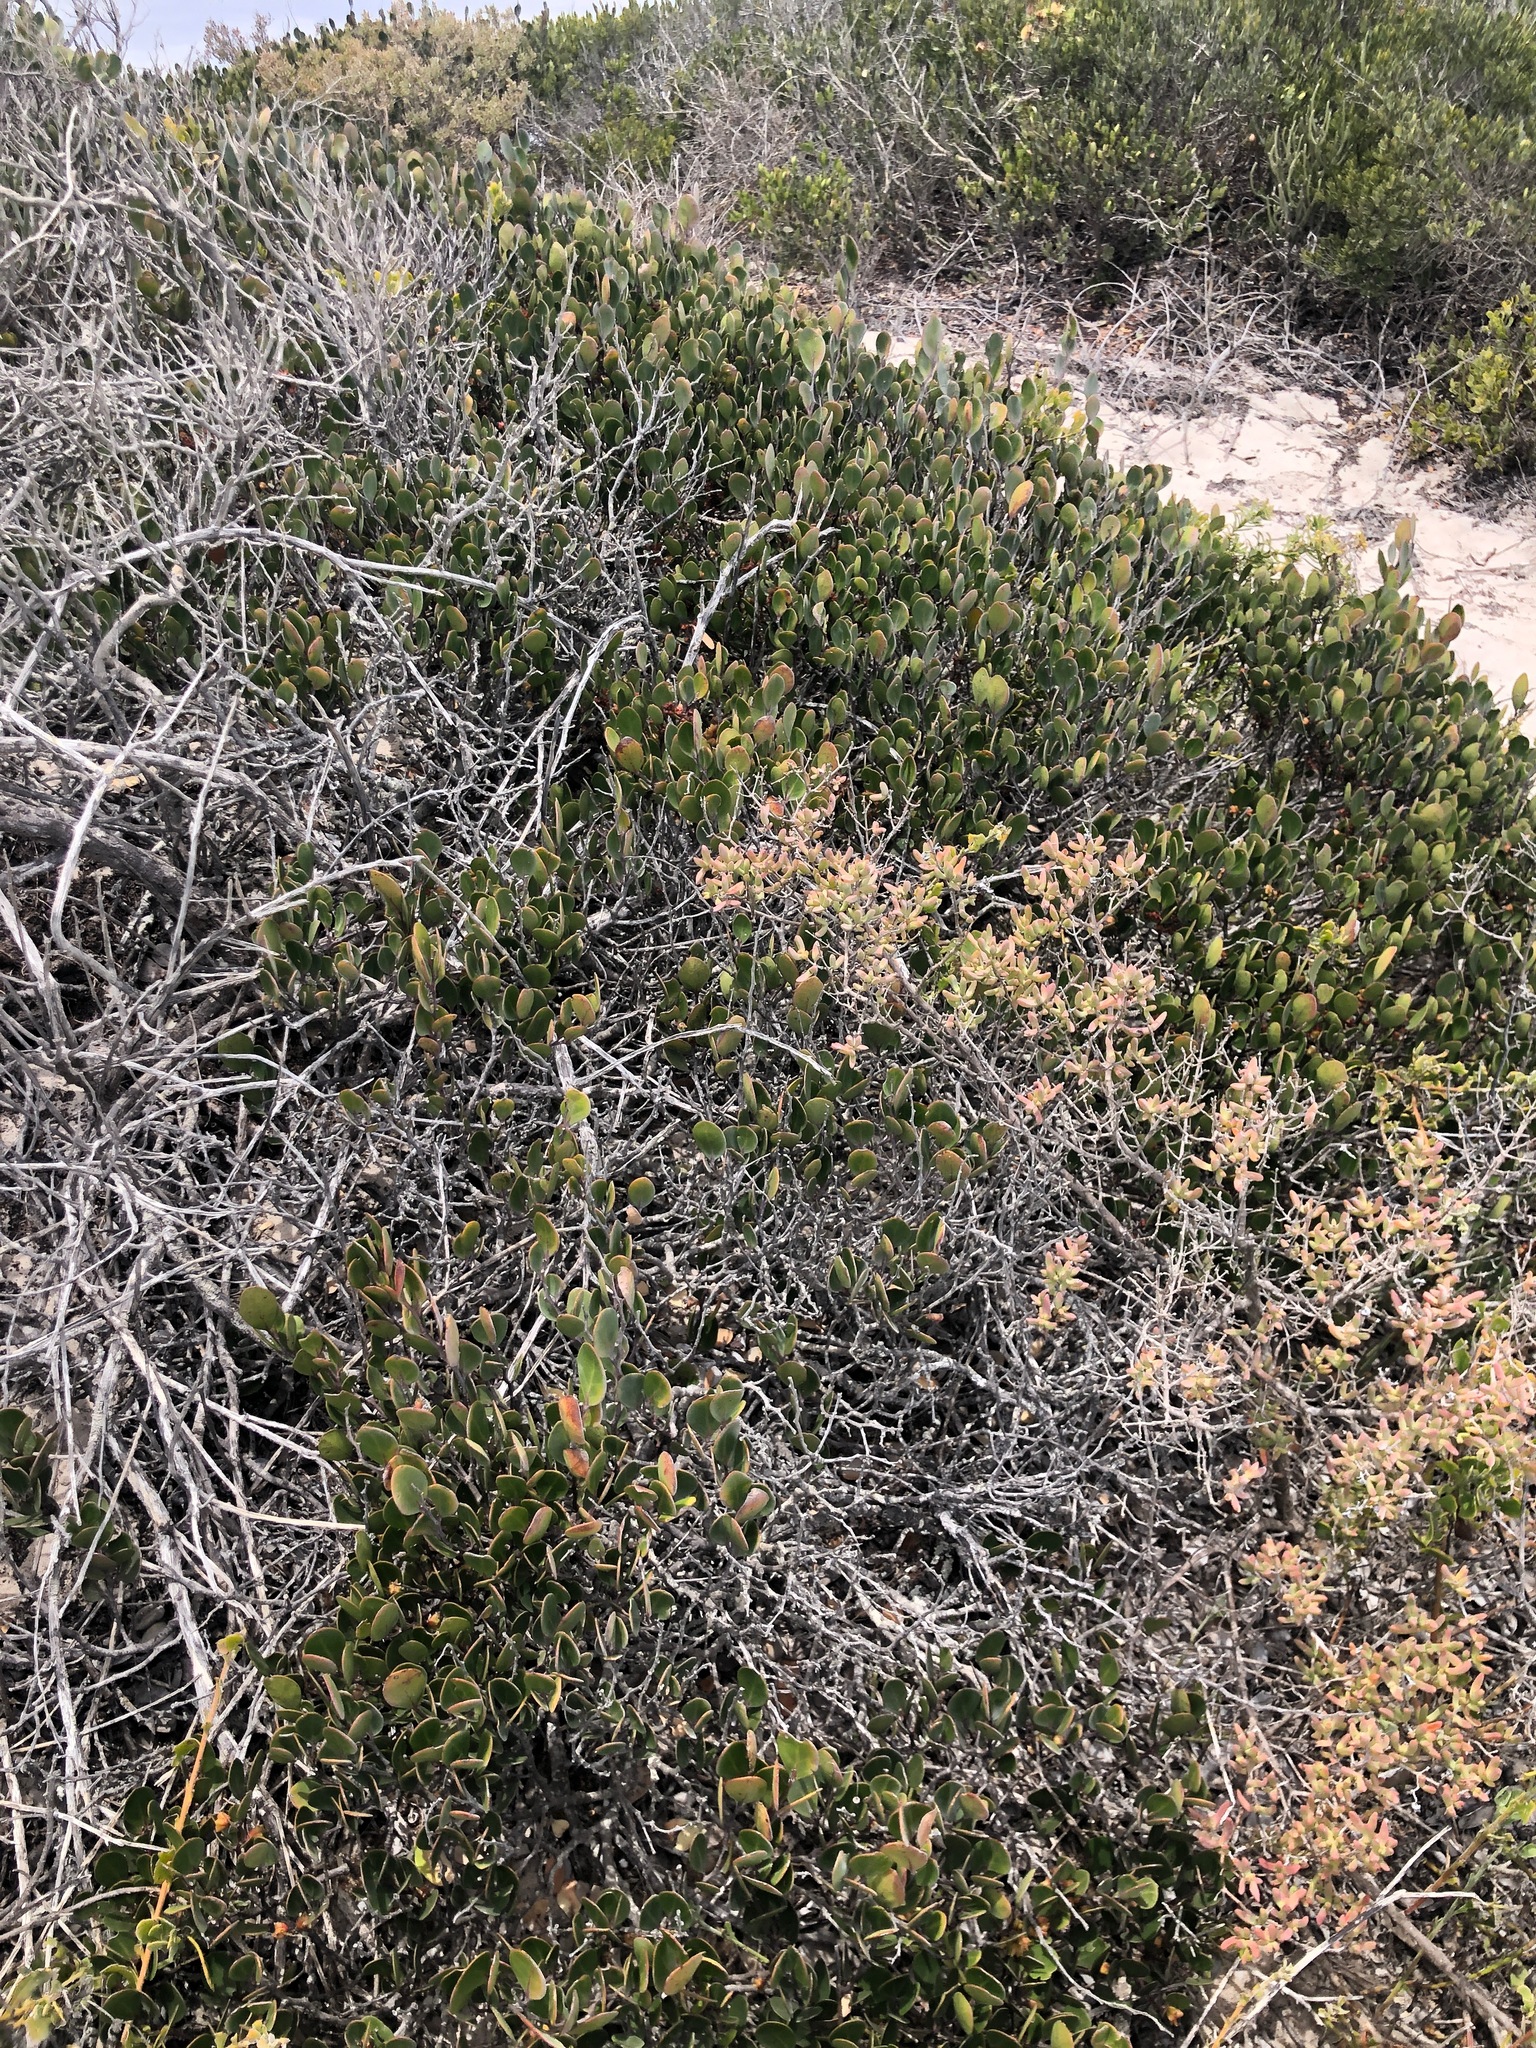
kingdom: Plantae
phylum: Tracheophyta
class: Magnoliopsida
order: Celastrales
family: Celastraceae
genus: Pterocelastrus
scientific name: Pterocelastrus tricuspidatus
